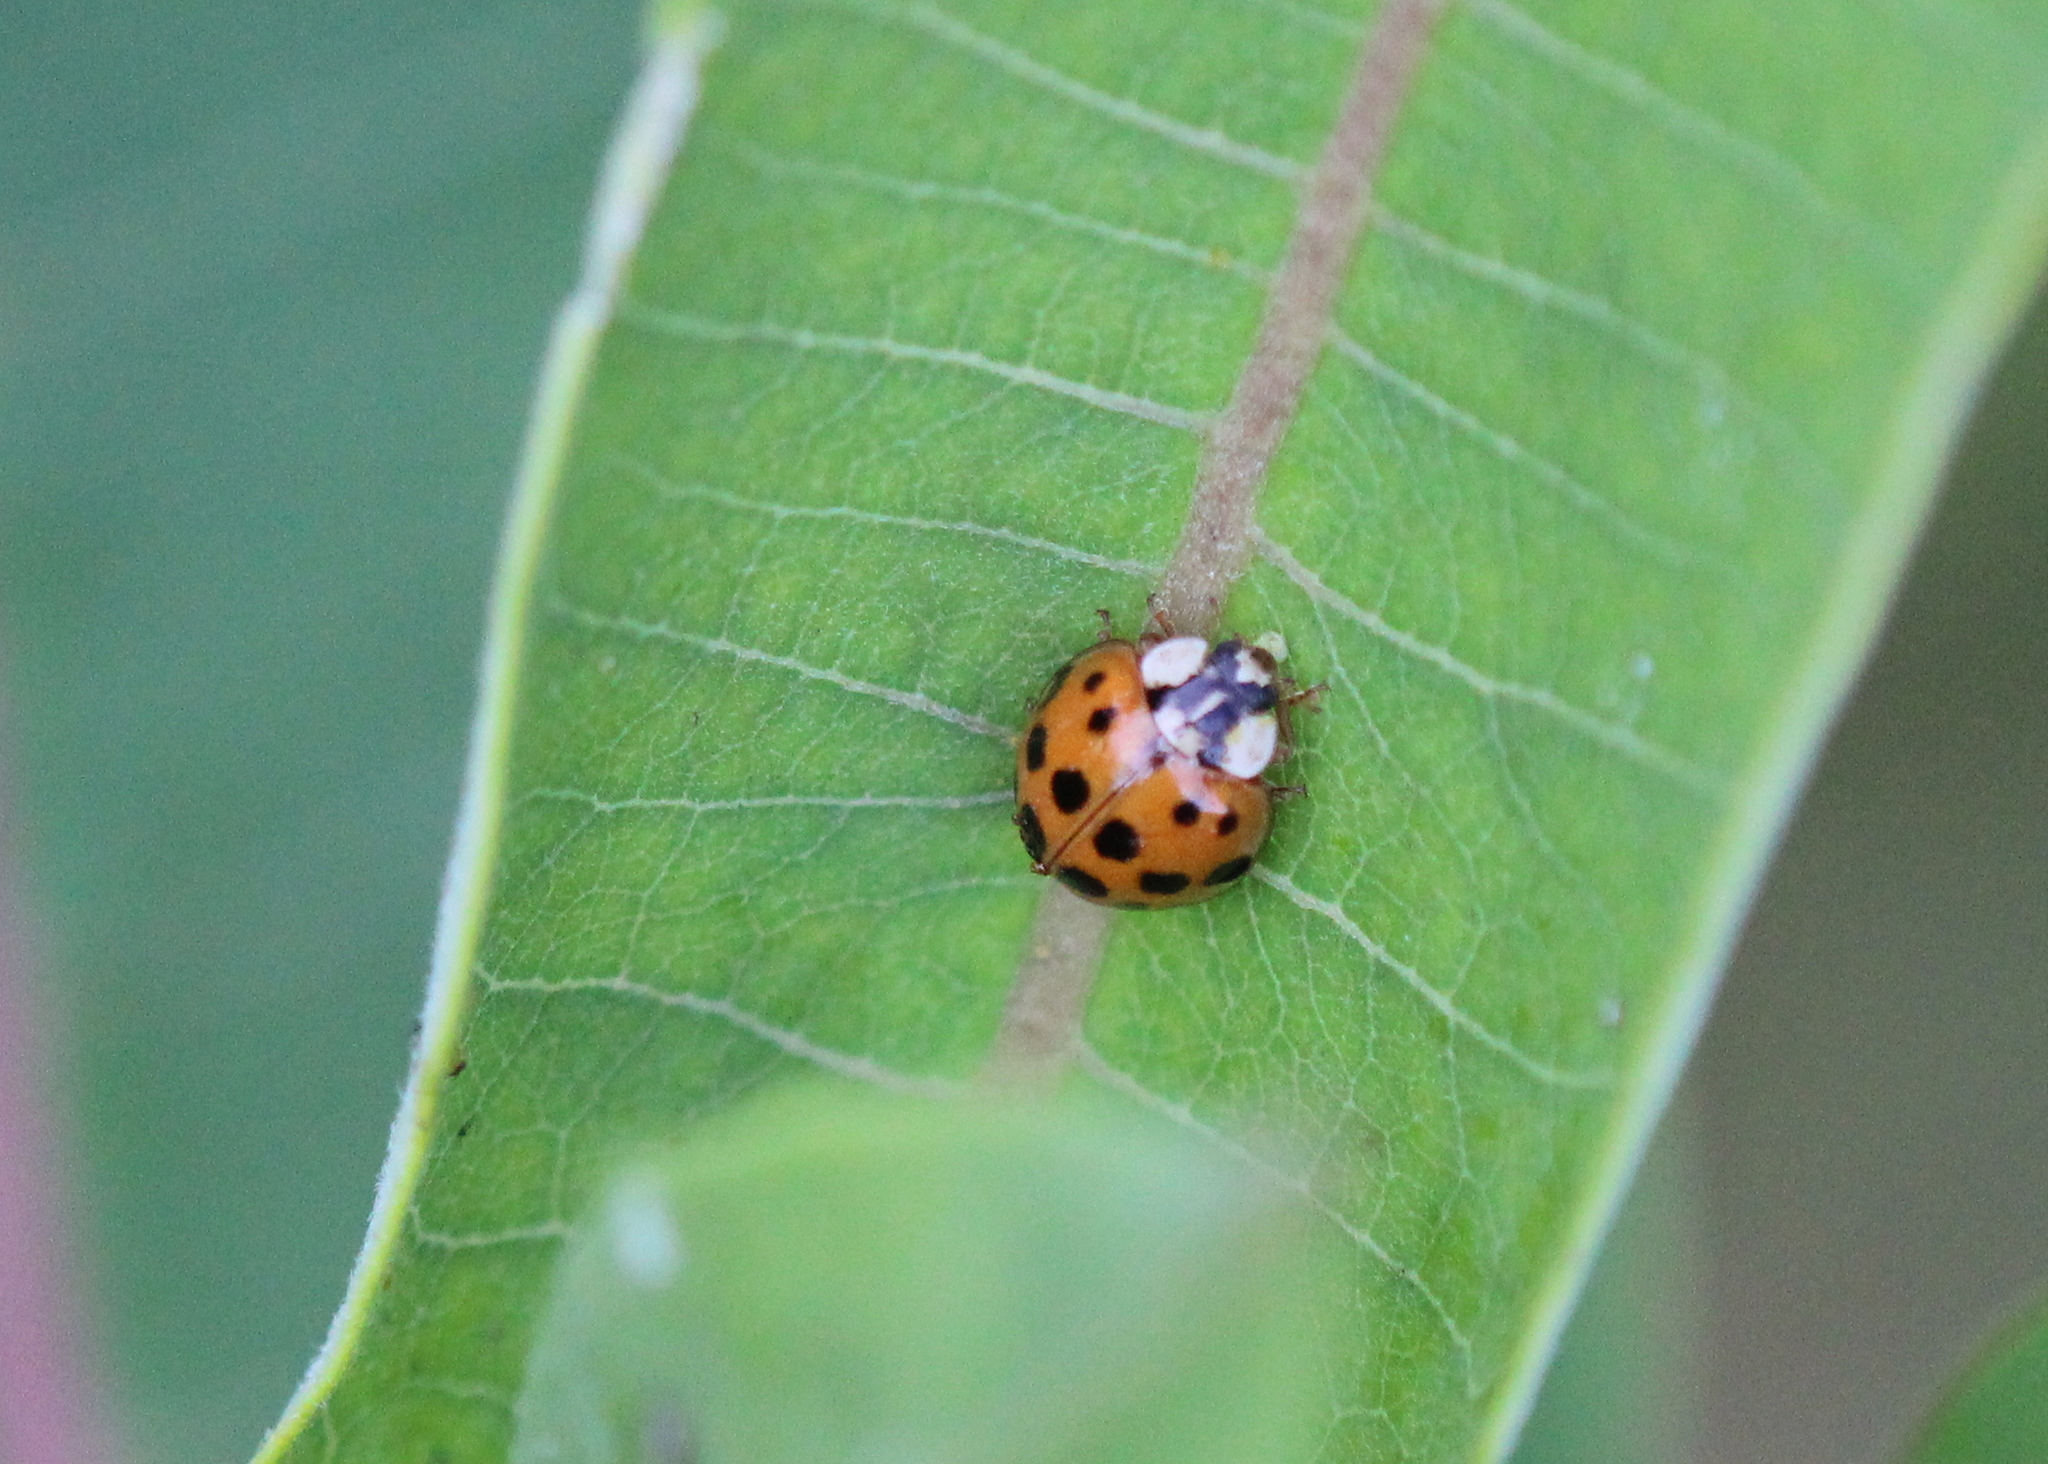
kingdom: Animalia
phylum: Arthropoda
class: Insecta
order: Coleoptera
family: Coccinellidae
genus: Harmonia
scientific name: Harmonia axyridis
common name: Harlequin ladybird
